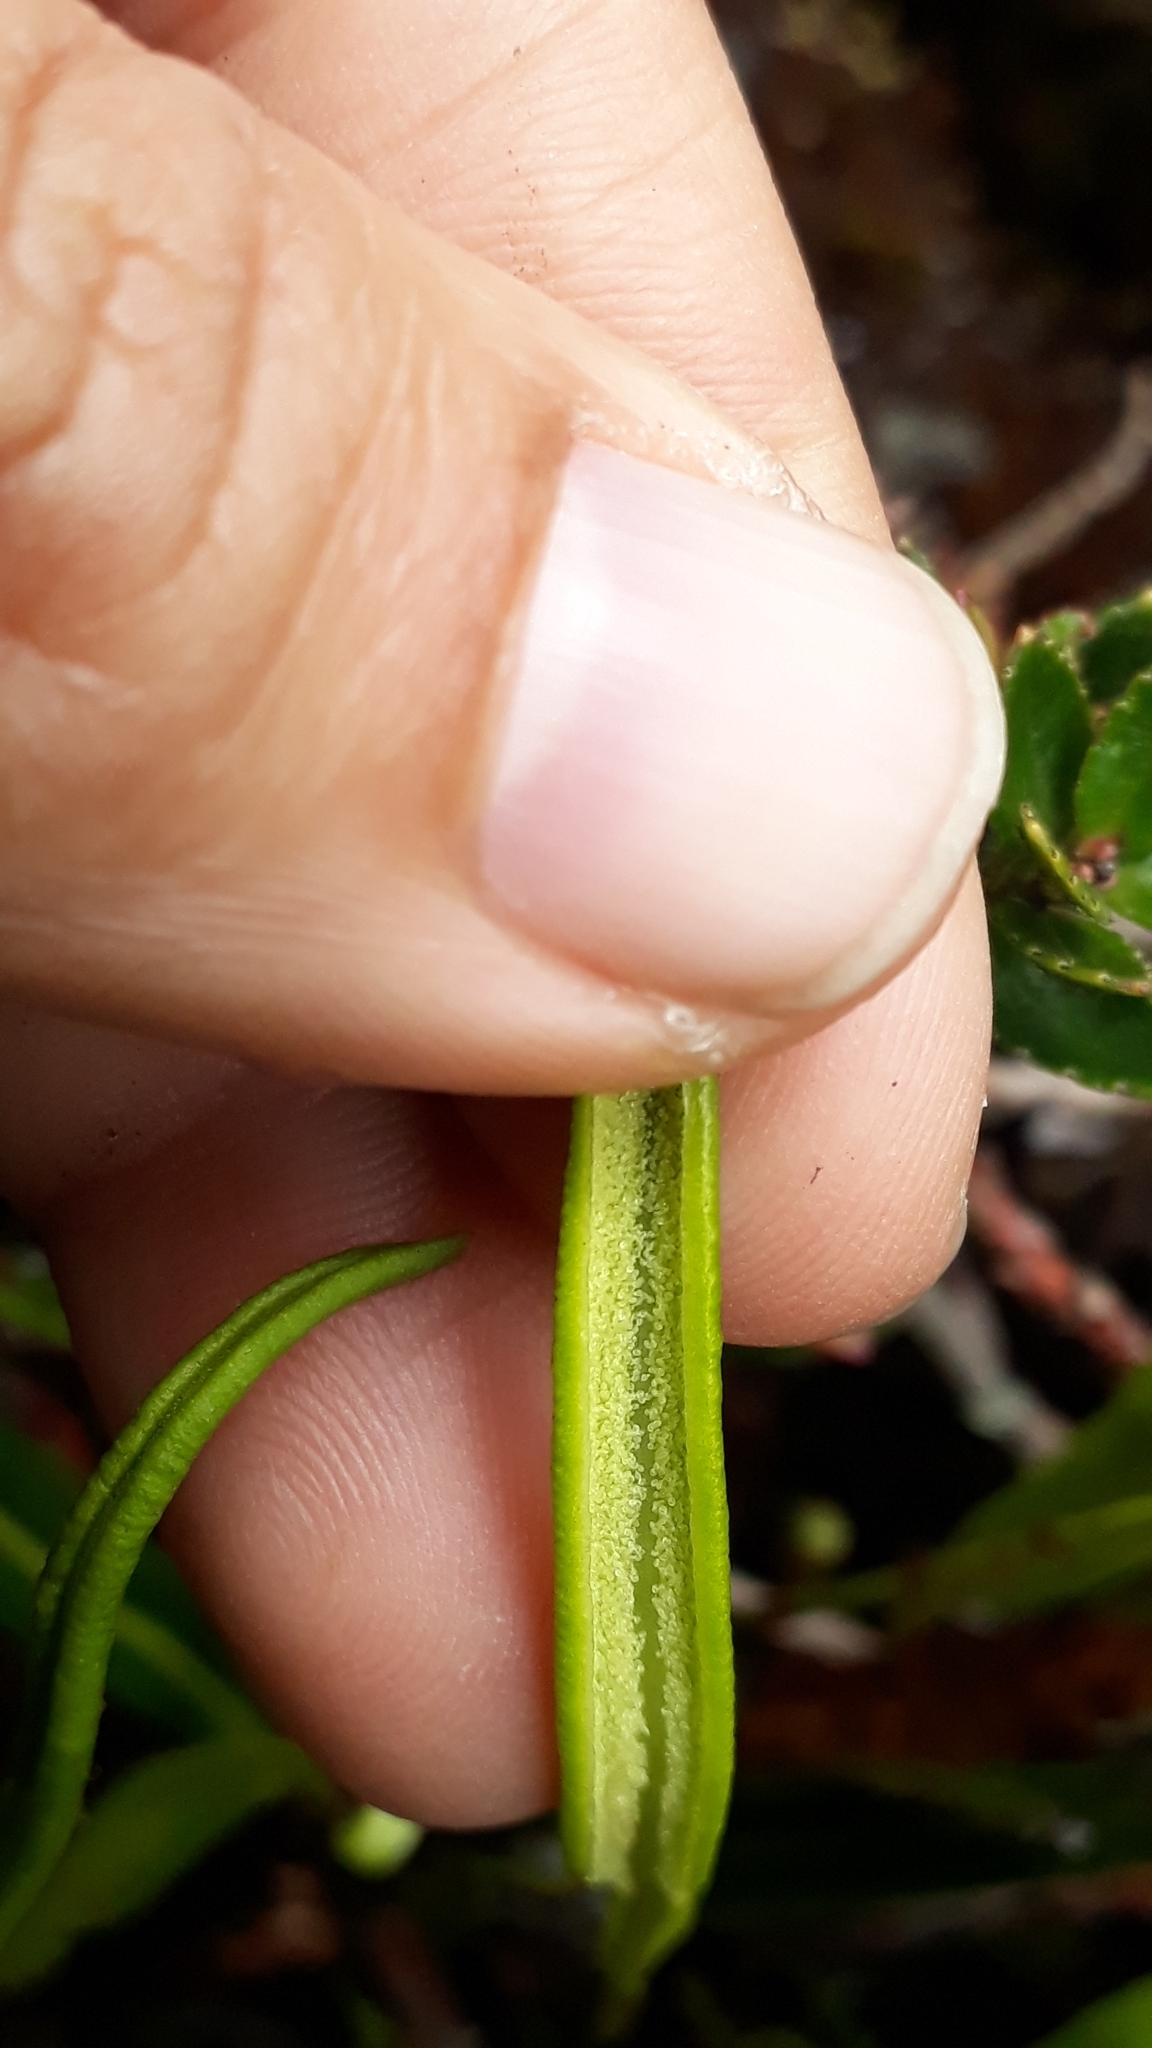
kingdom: Plantae
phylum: Tracheophyta
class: Polypodiopsida
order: Polypodiales
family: Dryopteridaceae
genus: Elaphoglossum
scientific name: Elaphoglossum gayanum
